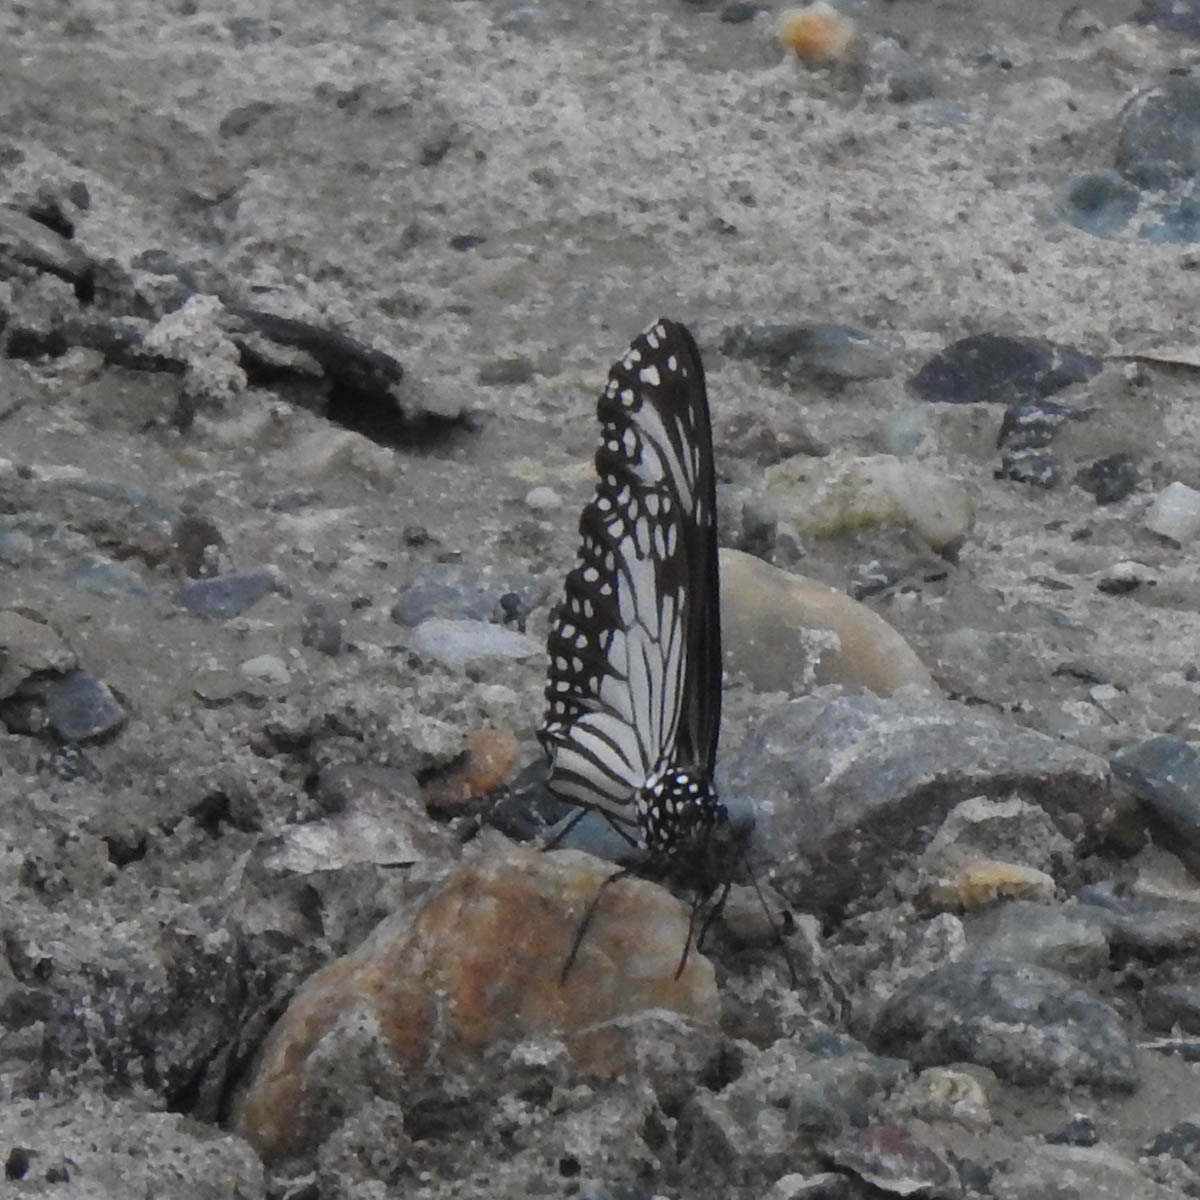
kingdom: Animalia
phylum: Arthropoda
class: Insecta
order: Lepidoptera
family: Nymphalidae
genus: Parantica
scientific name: Parantica aglea
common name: Glassy tiger
